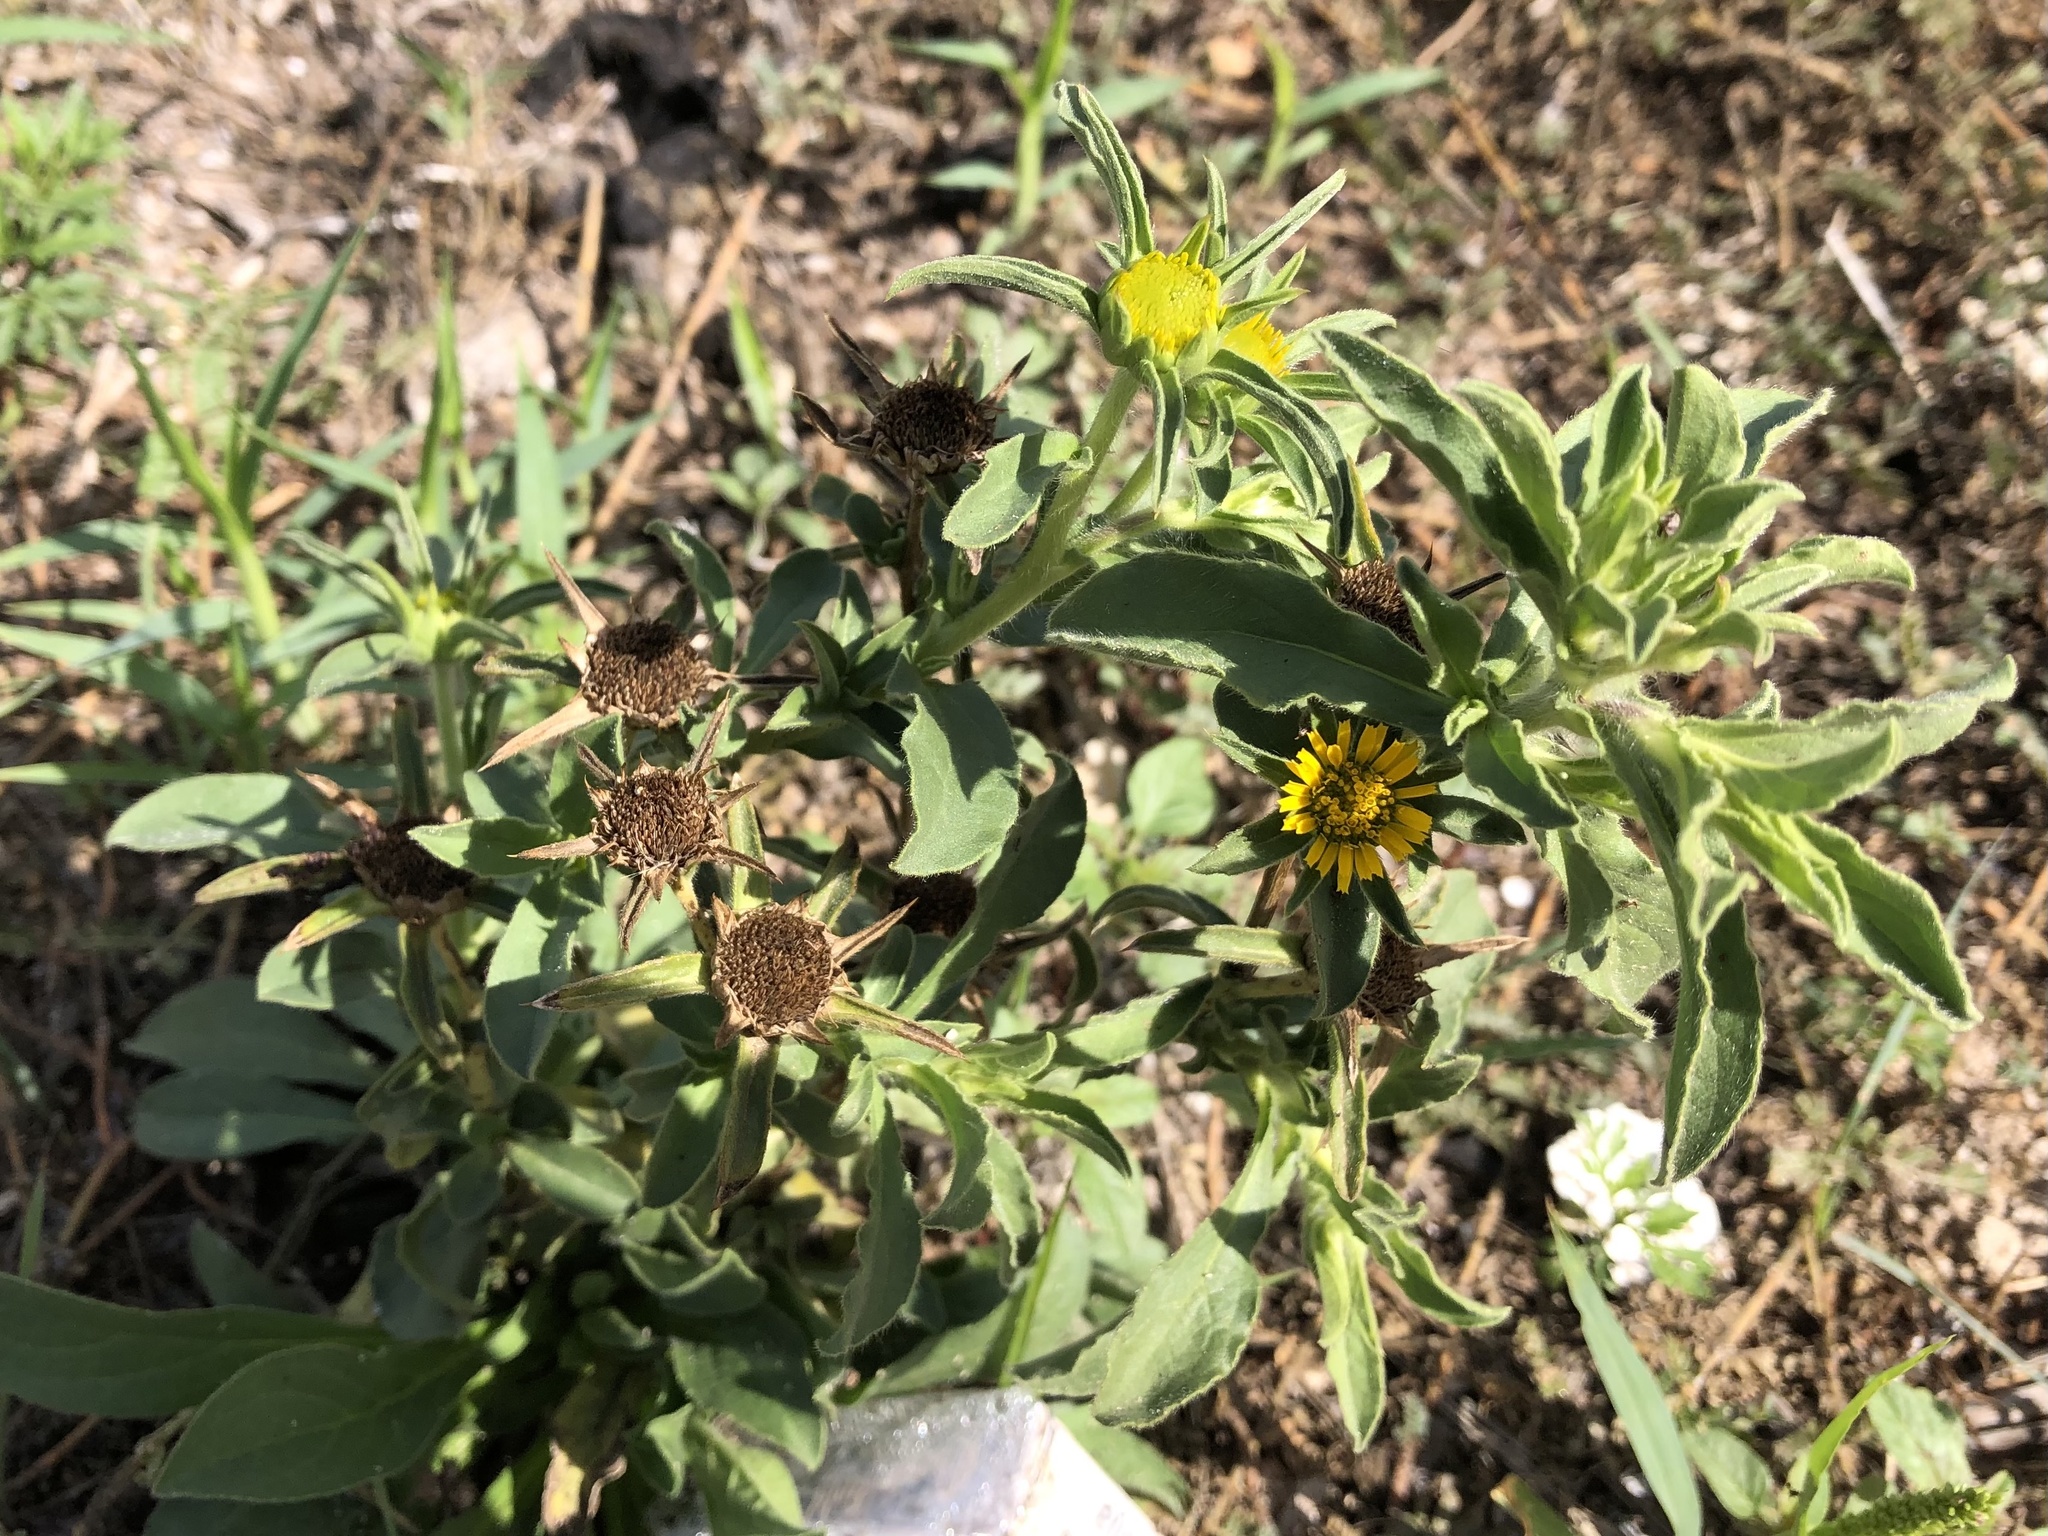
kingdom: Plantae
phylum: Tracheophyta
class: Magnoliopsida
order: Asterales
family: Asteraceae
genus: Pallenis
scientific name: Pallenis spinosa
